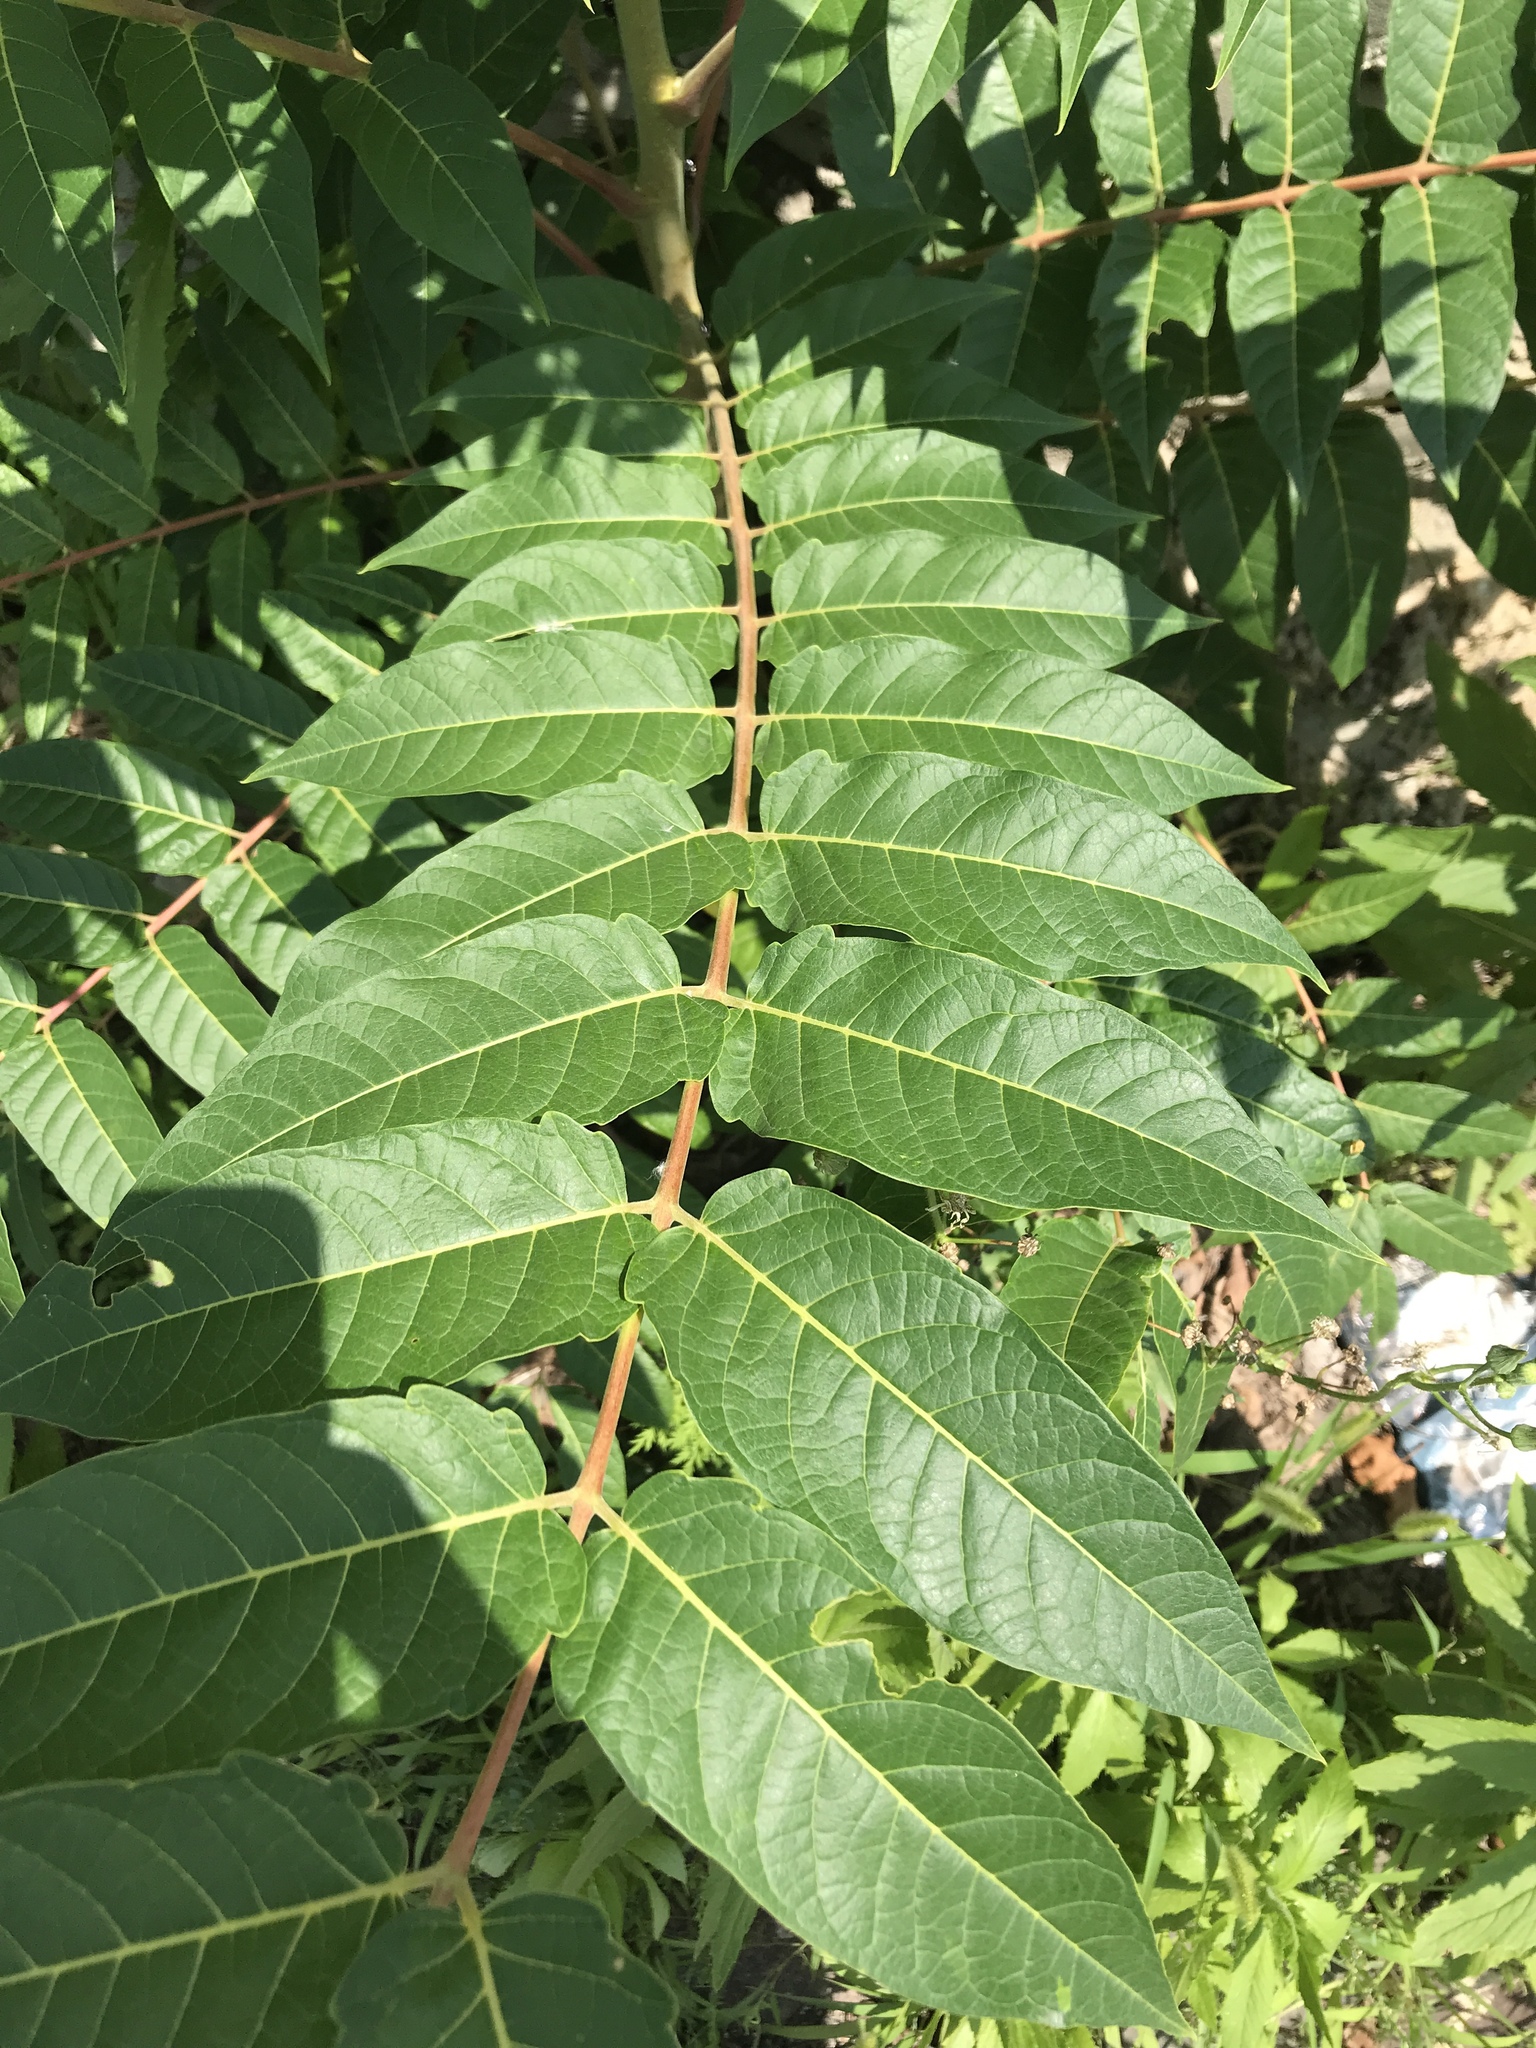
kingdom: Plantae
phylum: Tracheophyta
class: Magnoliopsida
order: Sapindales
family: Simaroubaceae
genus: Ailanthus
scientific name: Ailanthus altissima
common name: Tree-of-heaven
